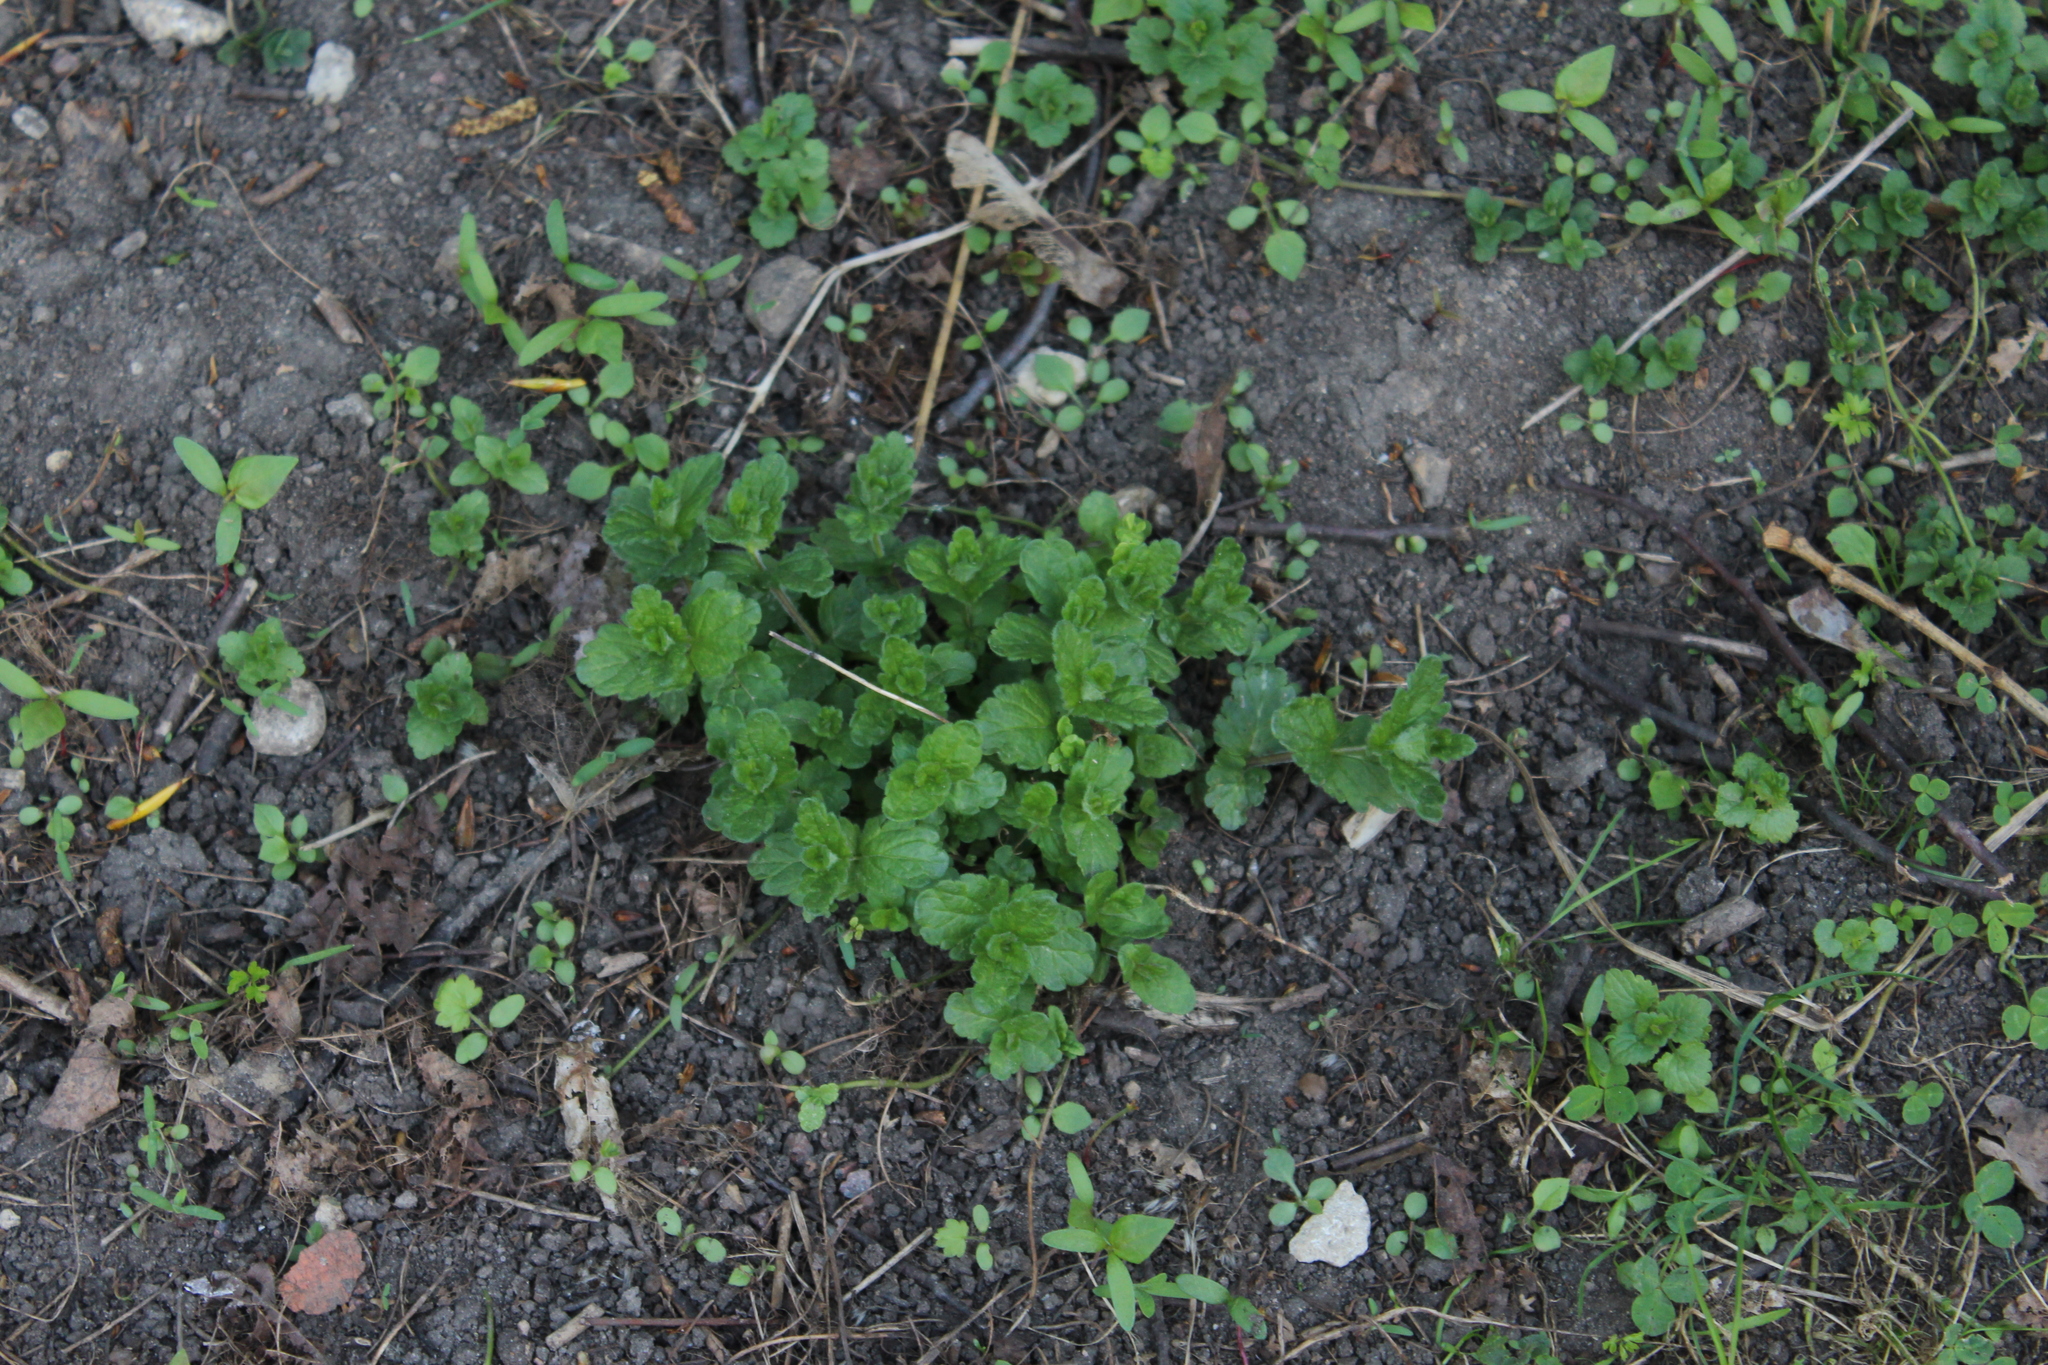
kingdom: Plantae
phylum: Tracheophyta
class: Magnoliopsida
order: Lamiales
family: Plantaginaceae
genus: Veronica
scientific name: Veronica chamaedrys
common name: Germander speedwell
